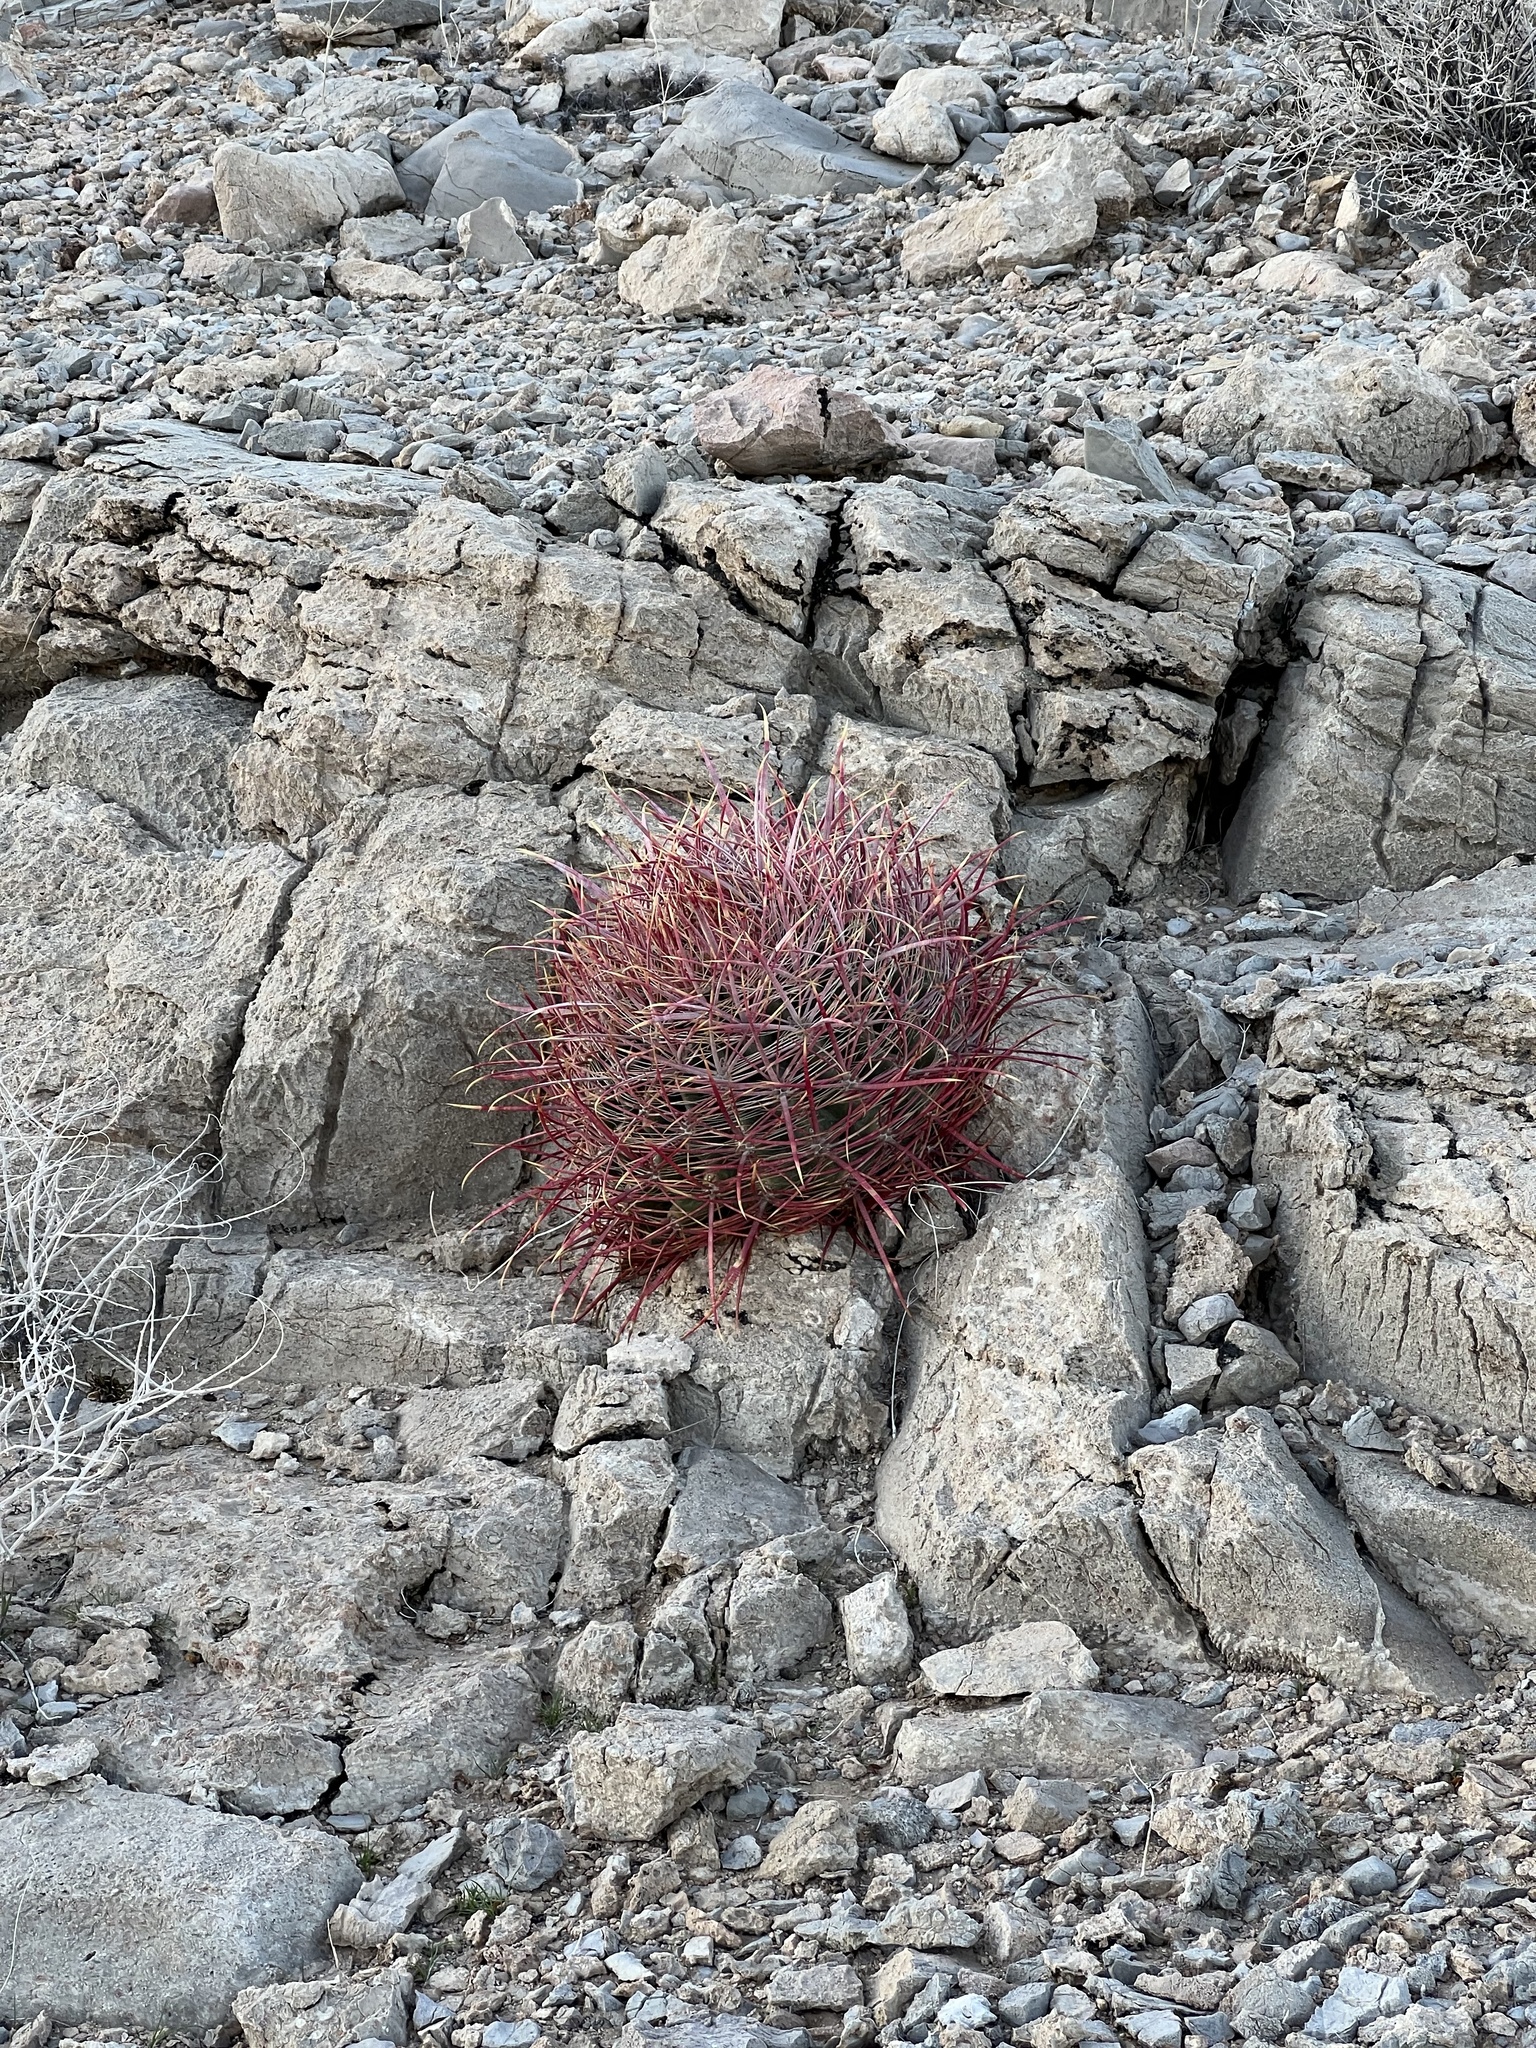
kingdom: Plantae
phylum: Tracheophyta
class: Magnoliopsida
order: Caryophyllales
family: Cactaceae
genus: Ferocactus
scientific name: Ferocactus cylindraceus
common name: California barrel cactus
